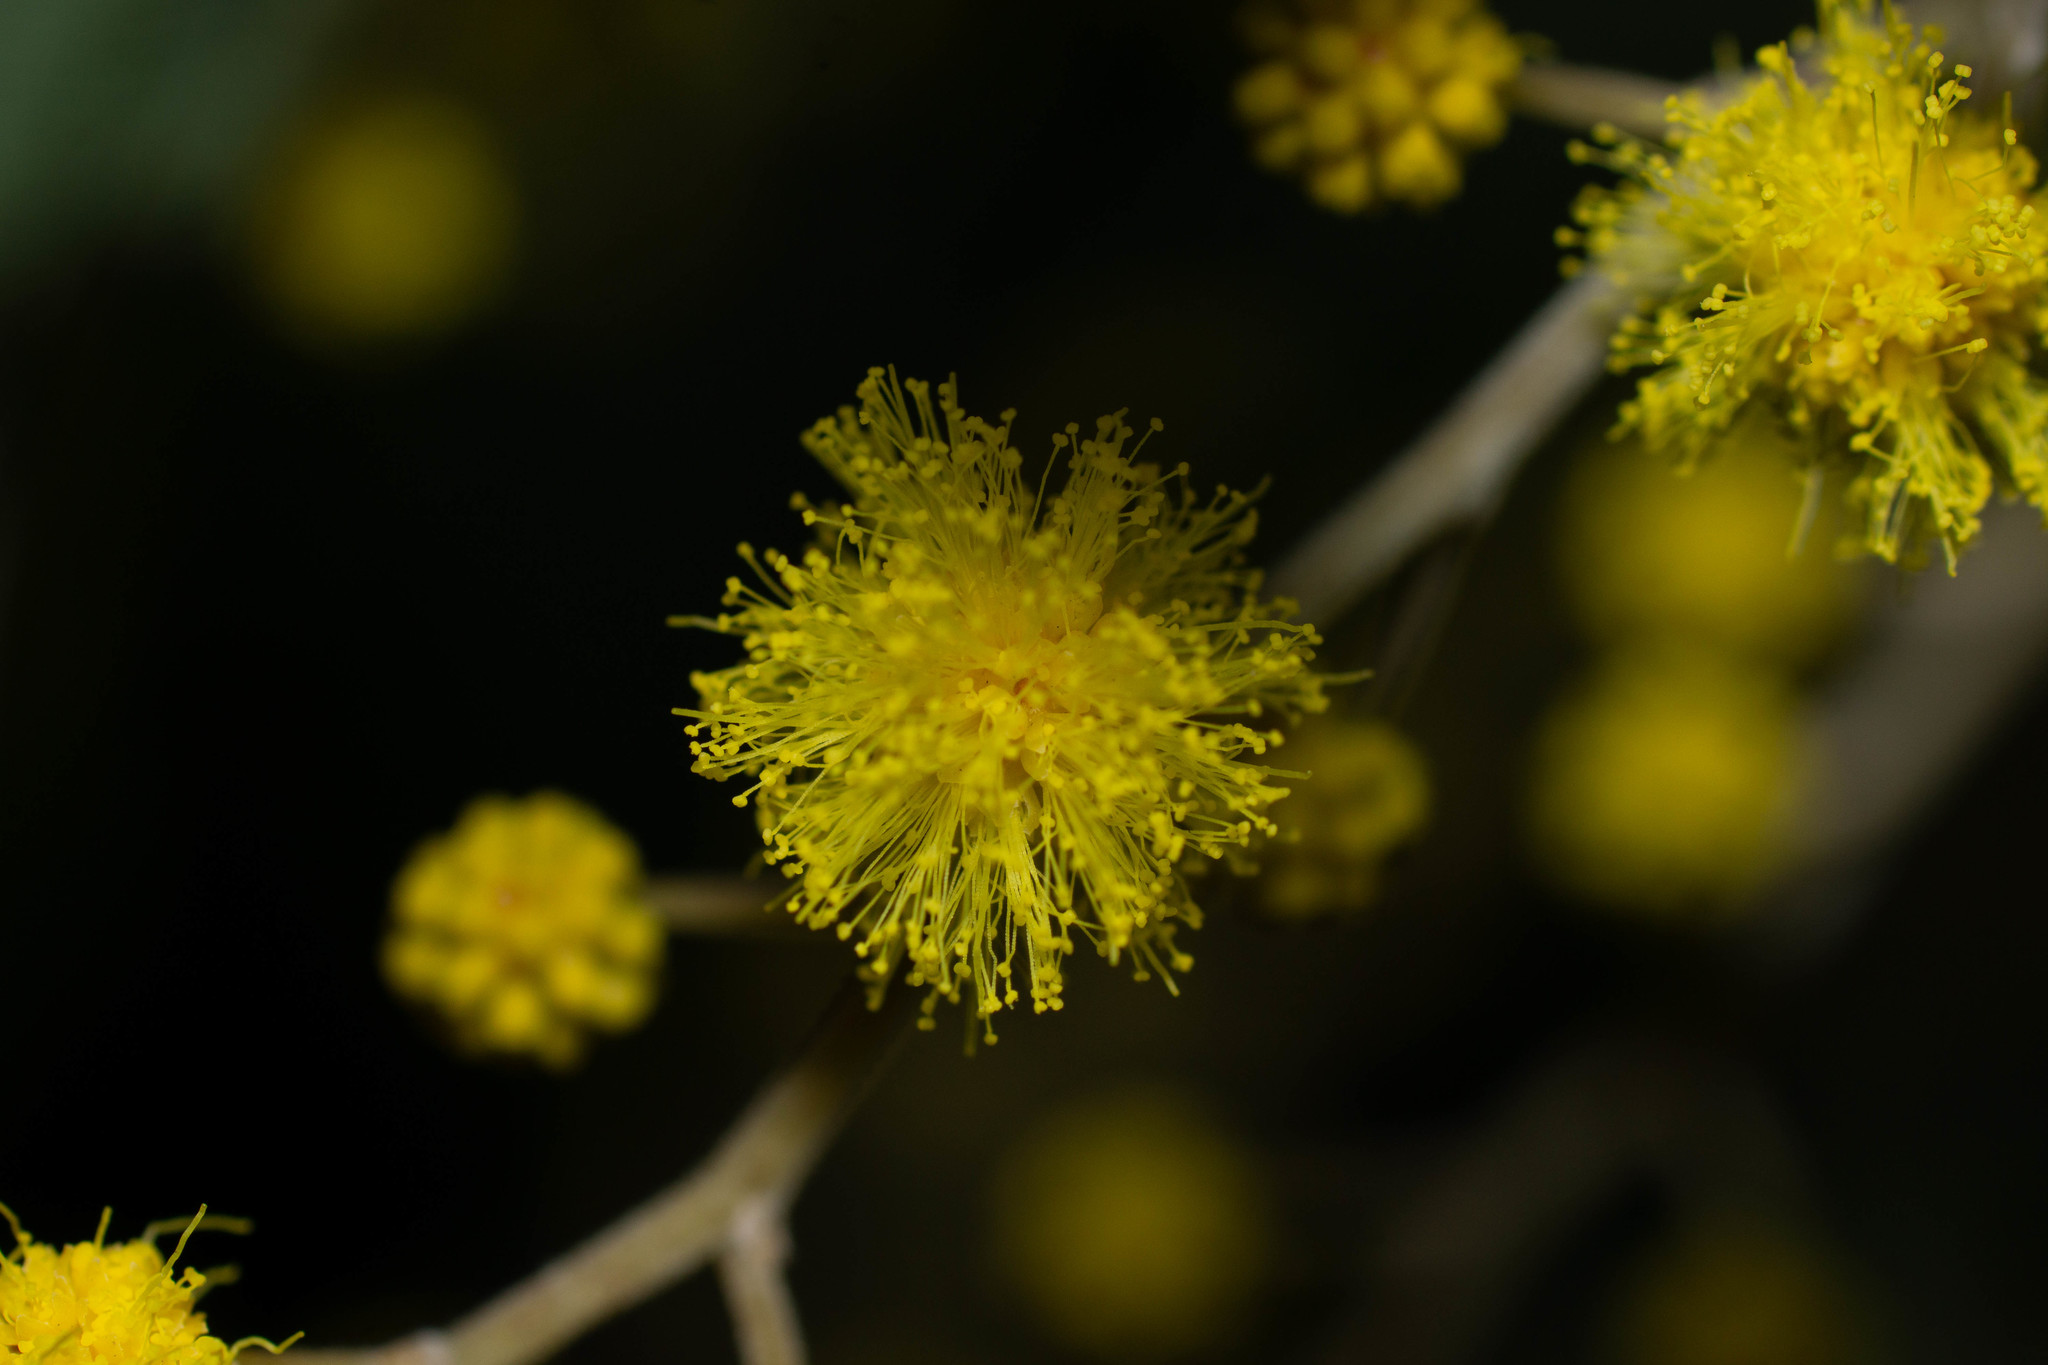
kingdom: Plantae
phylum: Tracheophyta
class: Magnoliopsida
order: Fabales
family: Fabaceae
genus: Acacia
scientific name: Acacia dealbata
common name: Silver wattle
